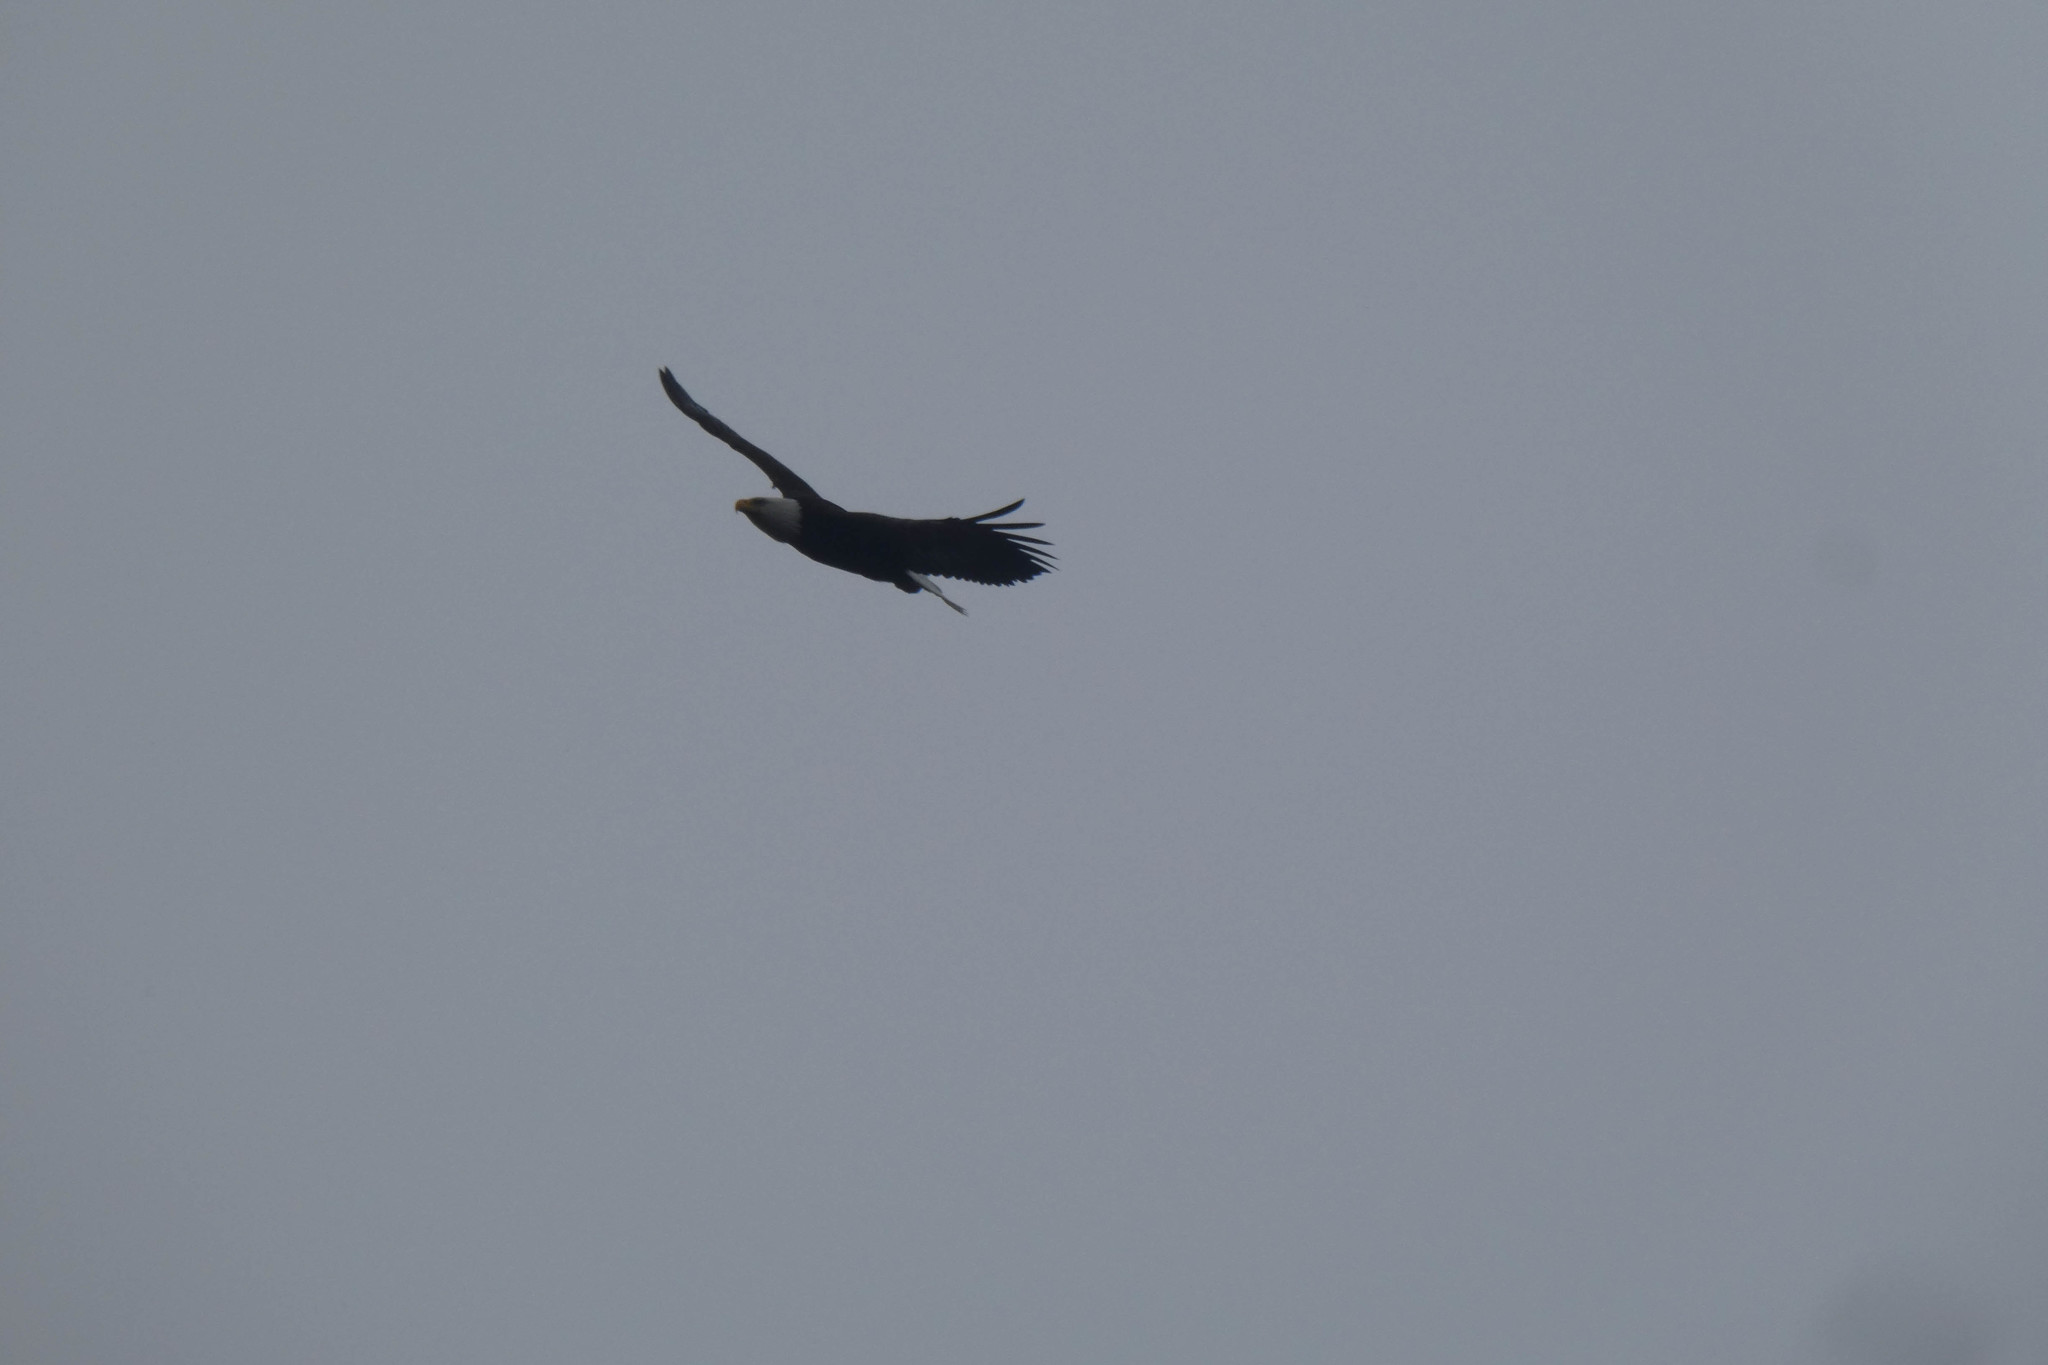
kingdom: Animalia
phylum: Chordata
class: Aves
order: Accipitriformes
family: Accipitridae
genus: Haliaeetus
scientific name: Haliaeetus leucocephalus
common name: Bald eagle
